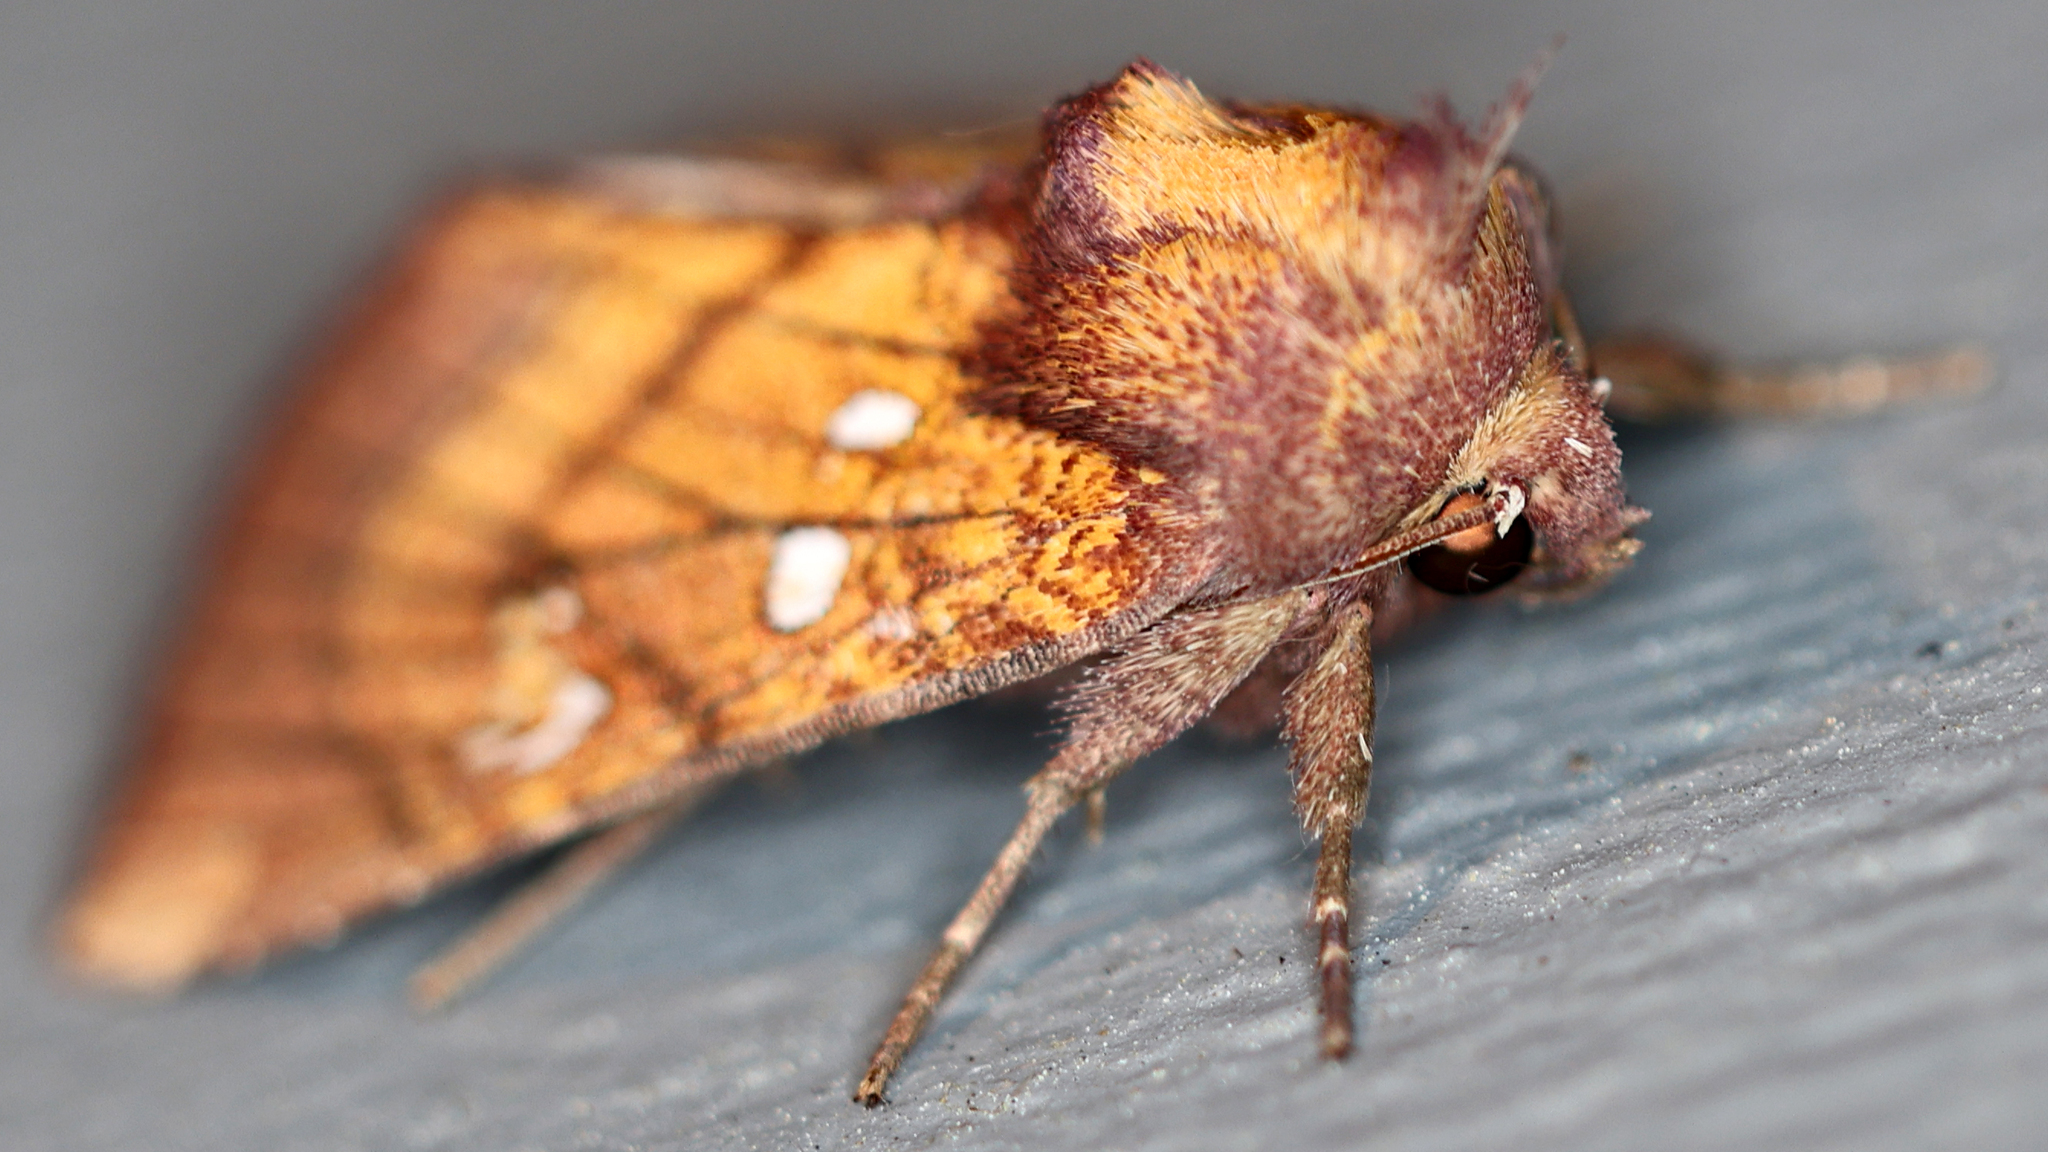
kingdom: Animalia
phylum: Arthropoda
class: Insecta
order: Lepidoptera
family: Noctuidae
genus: Papaipema
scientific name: Papaipema inquaesita
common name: Sensitive fern borer moth
